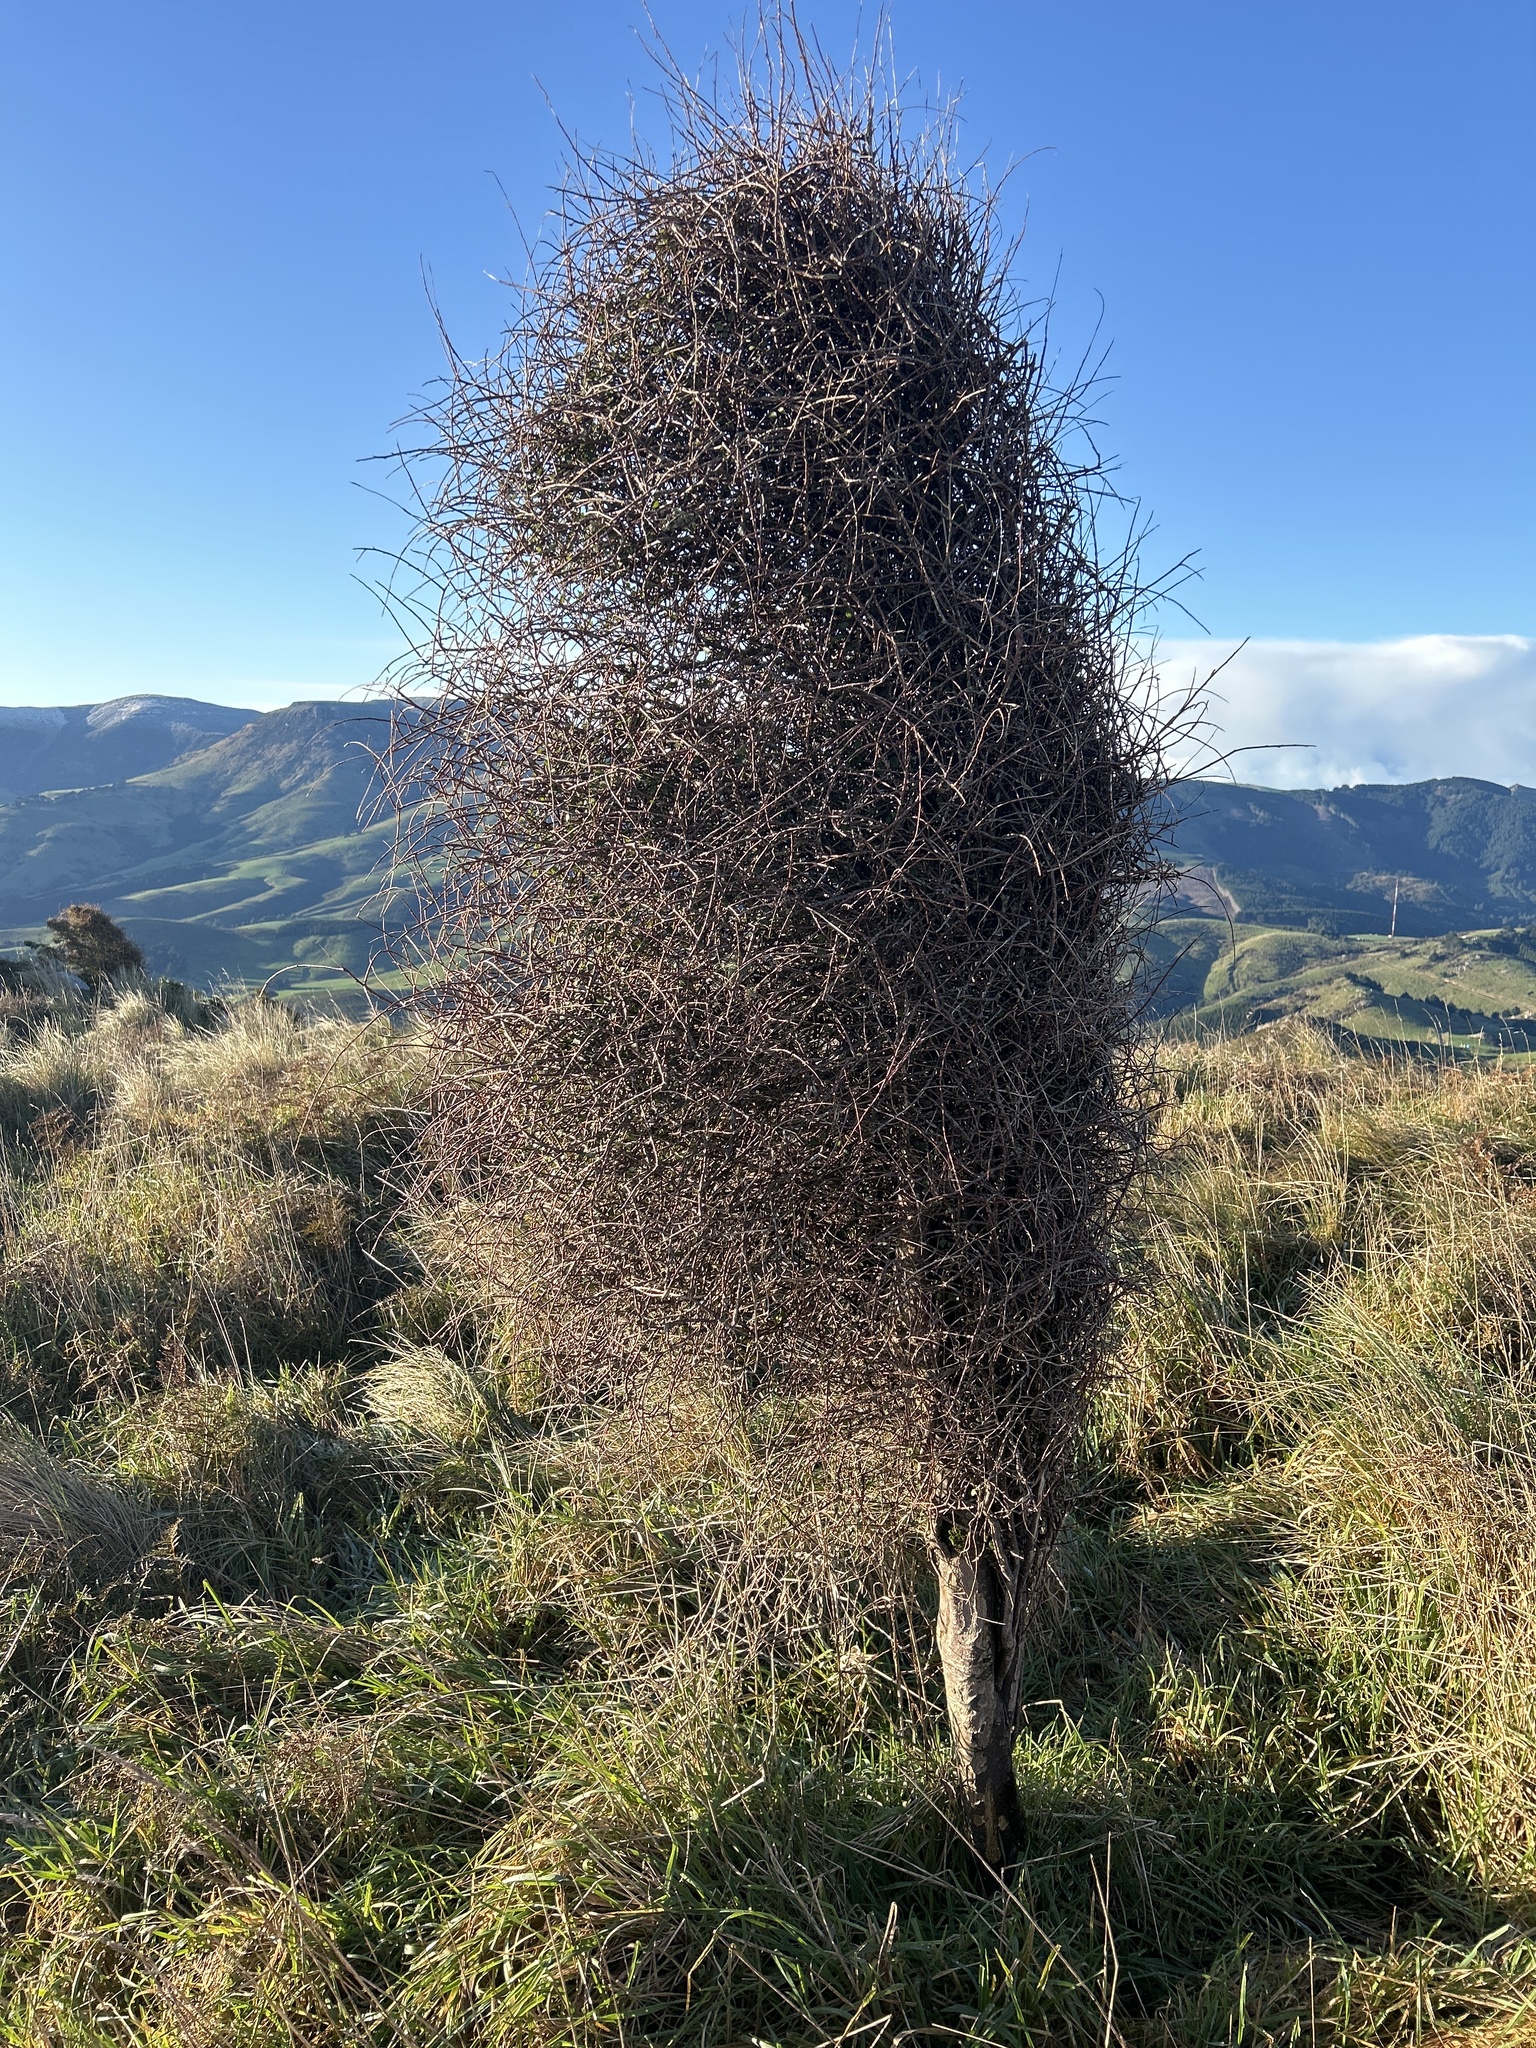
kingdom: Plantae
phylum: Tracheophyta
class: Magnoliopsida
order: Malvales
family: Malvaceae
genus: Hoheria
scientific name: Hoheria angustifolia
